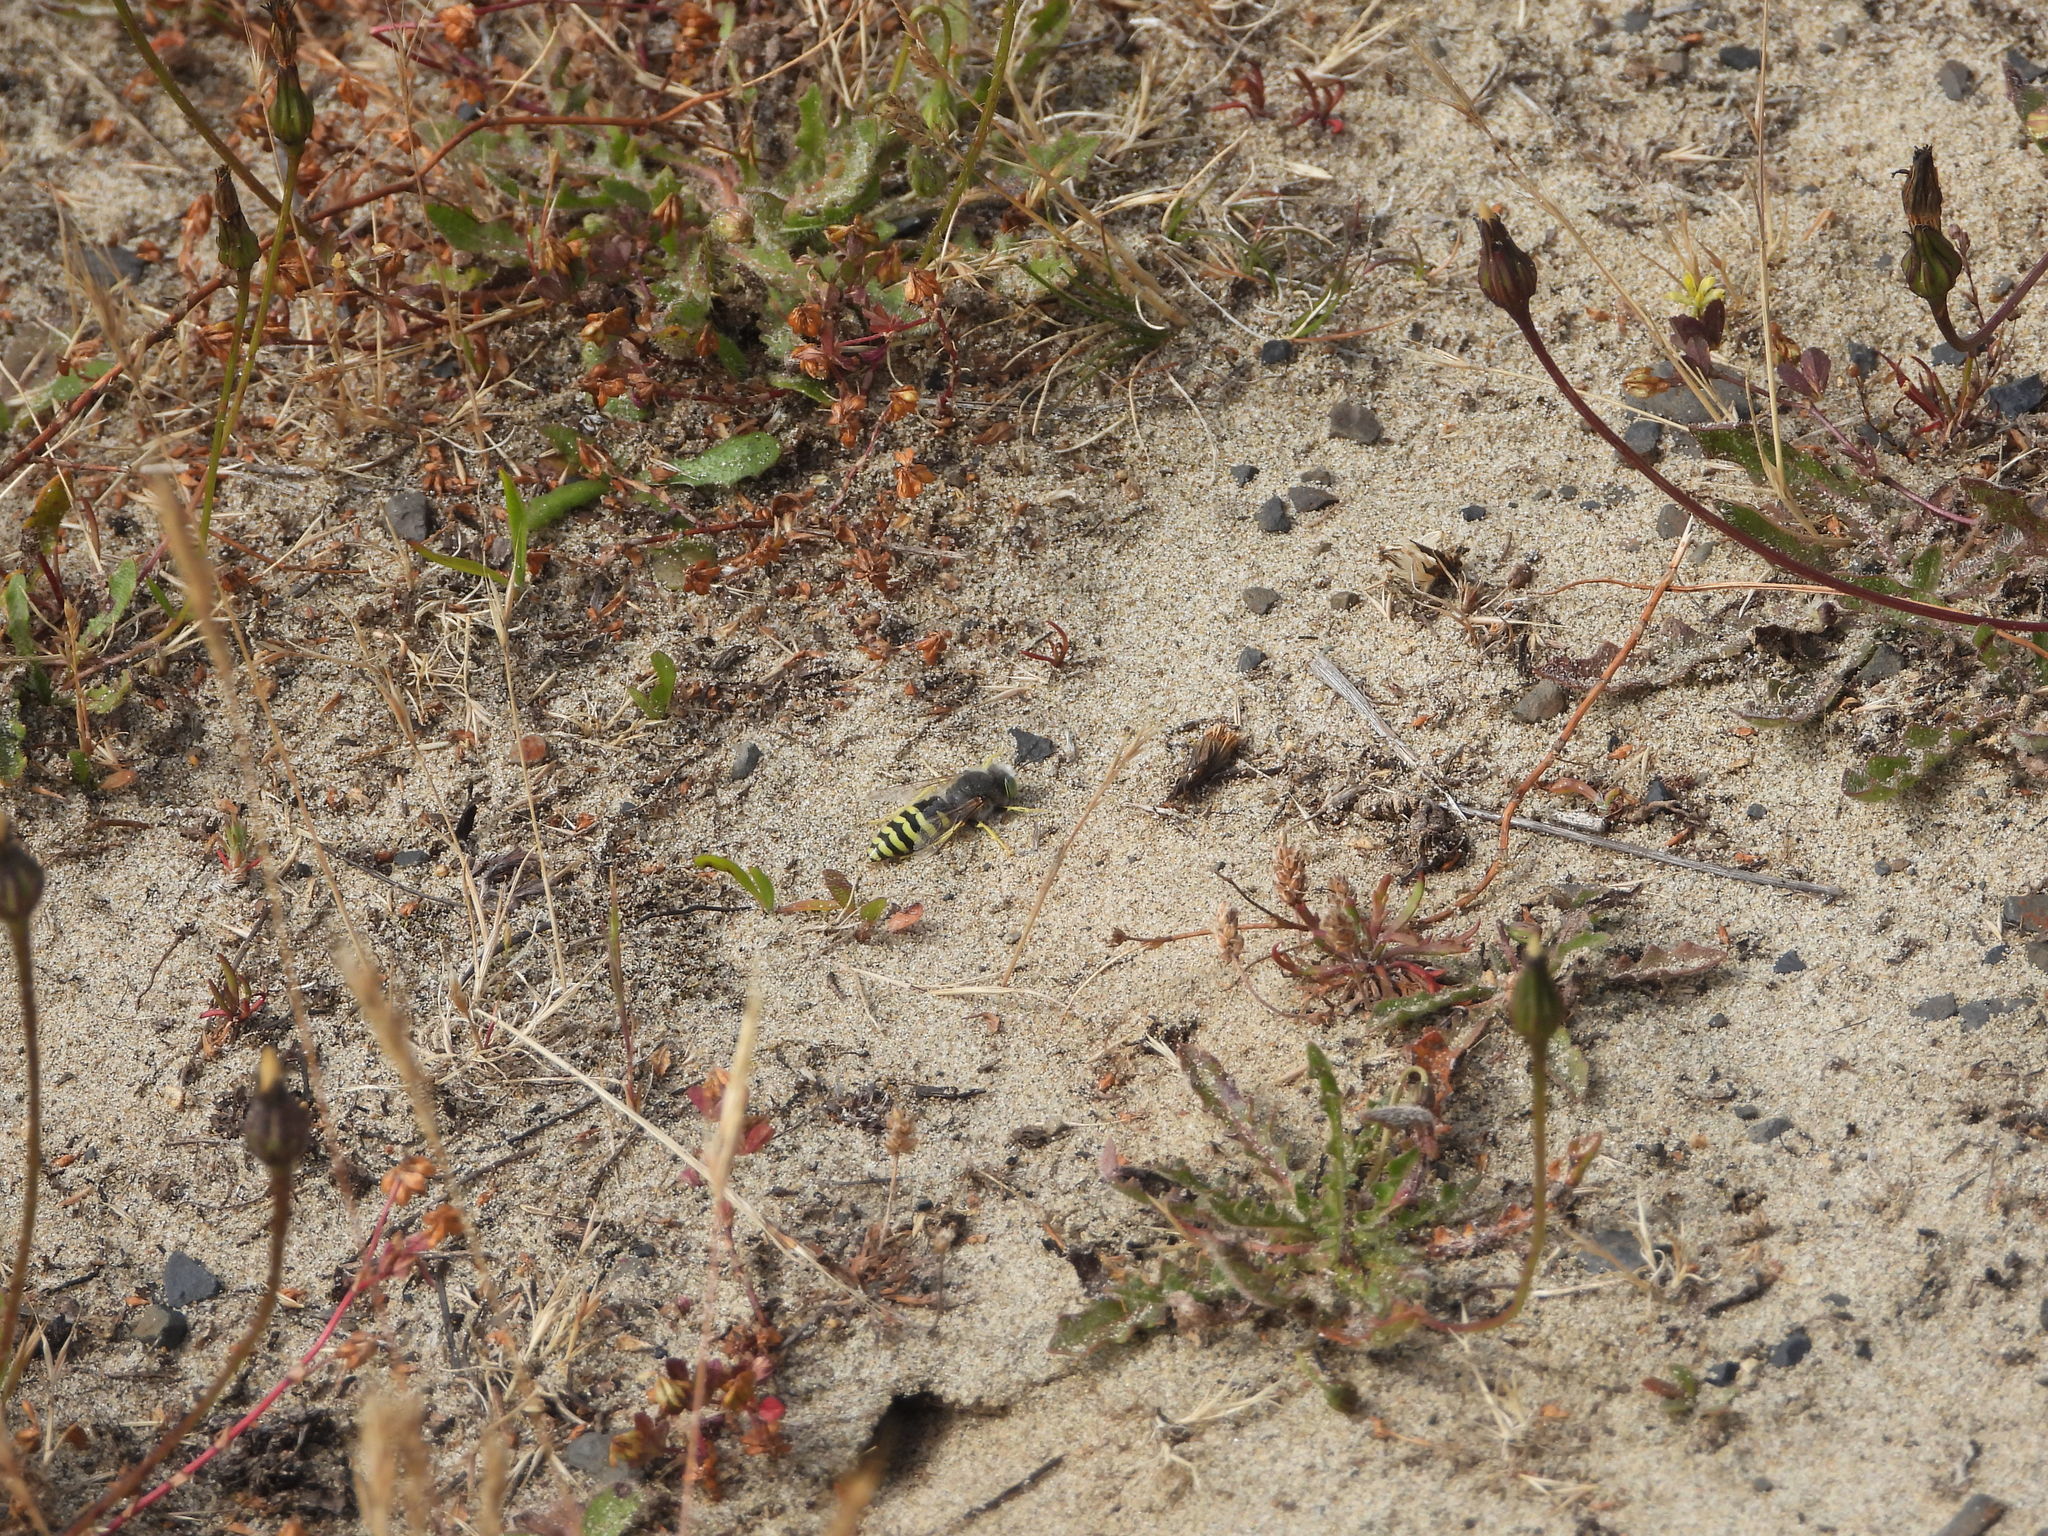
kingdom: Animalia
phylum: Arthropoda
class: Insecta
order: Hymenoptera
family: Crabronidae
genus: Bembix
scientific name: Bembix americana
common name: American sand wasp
